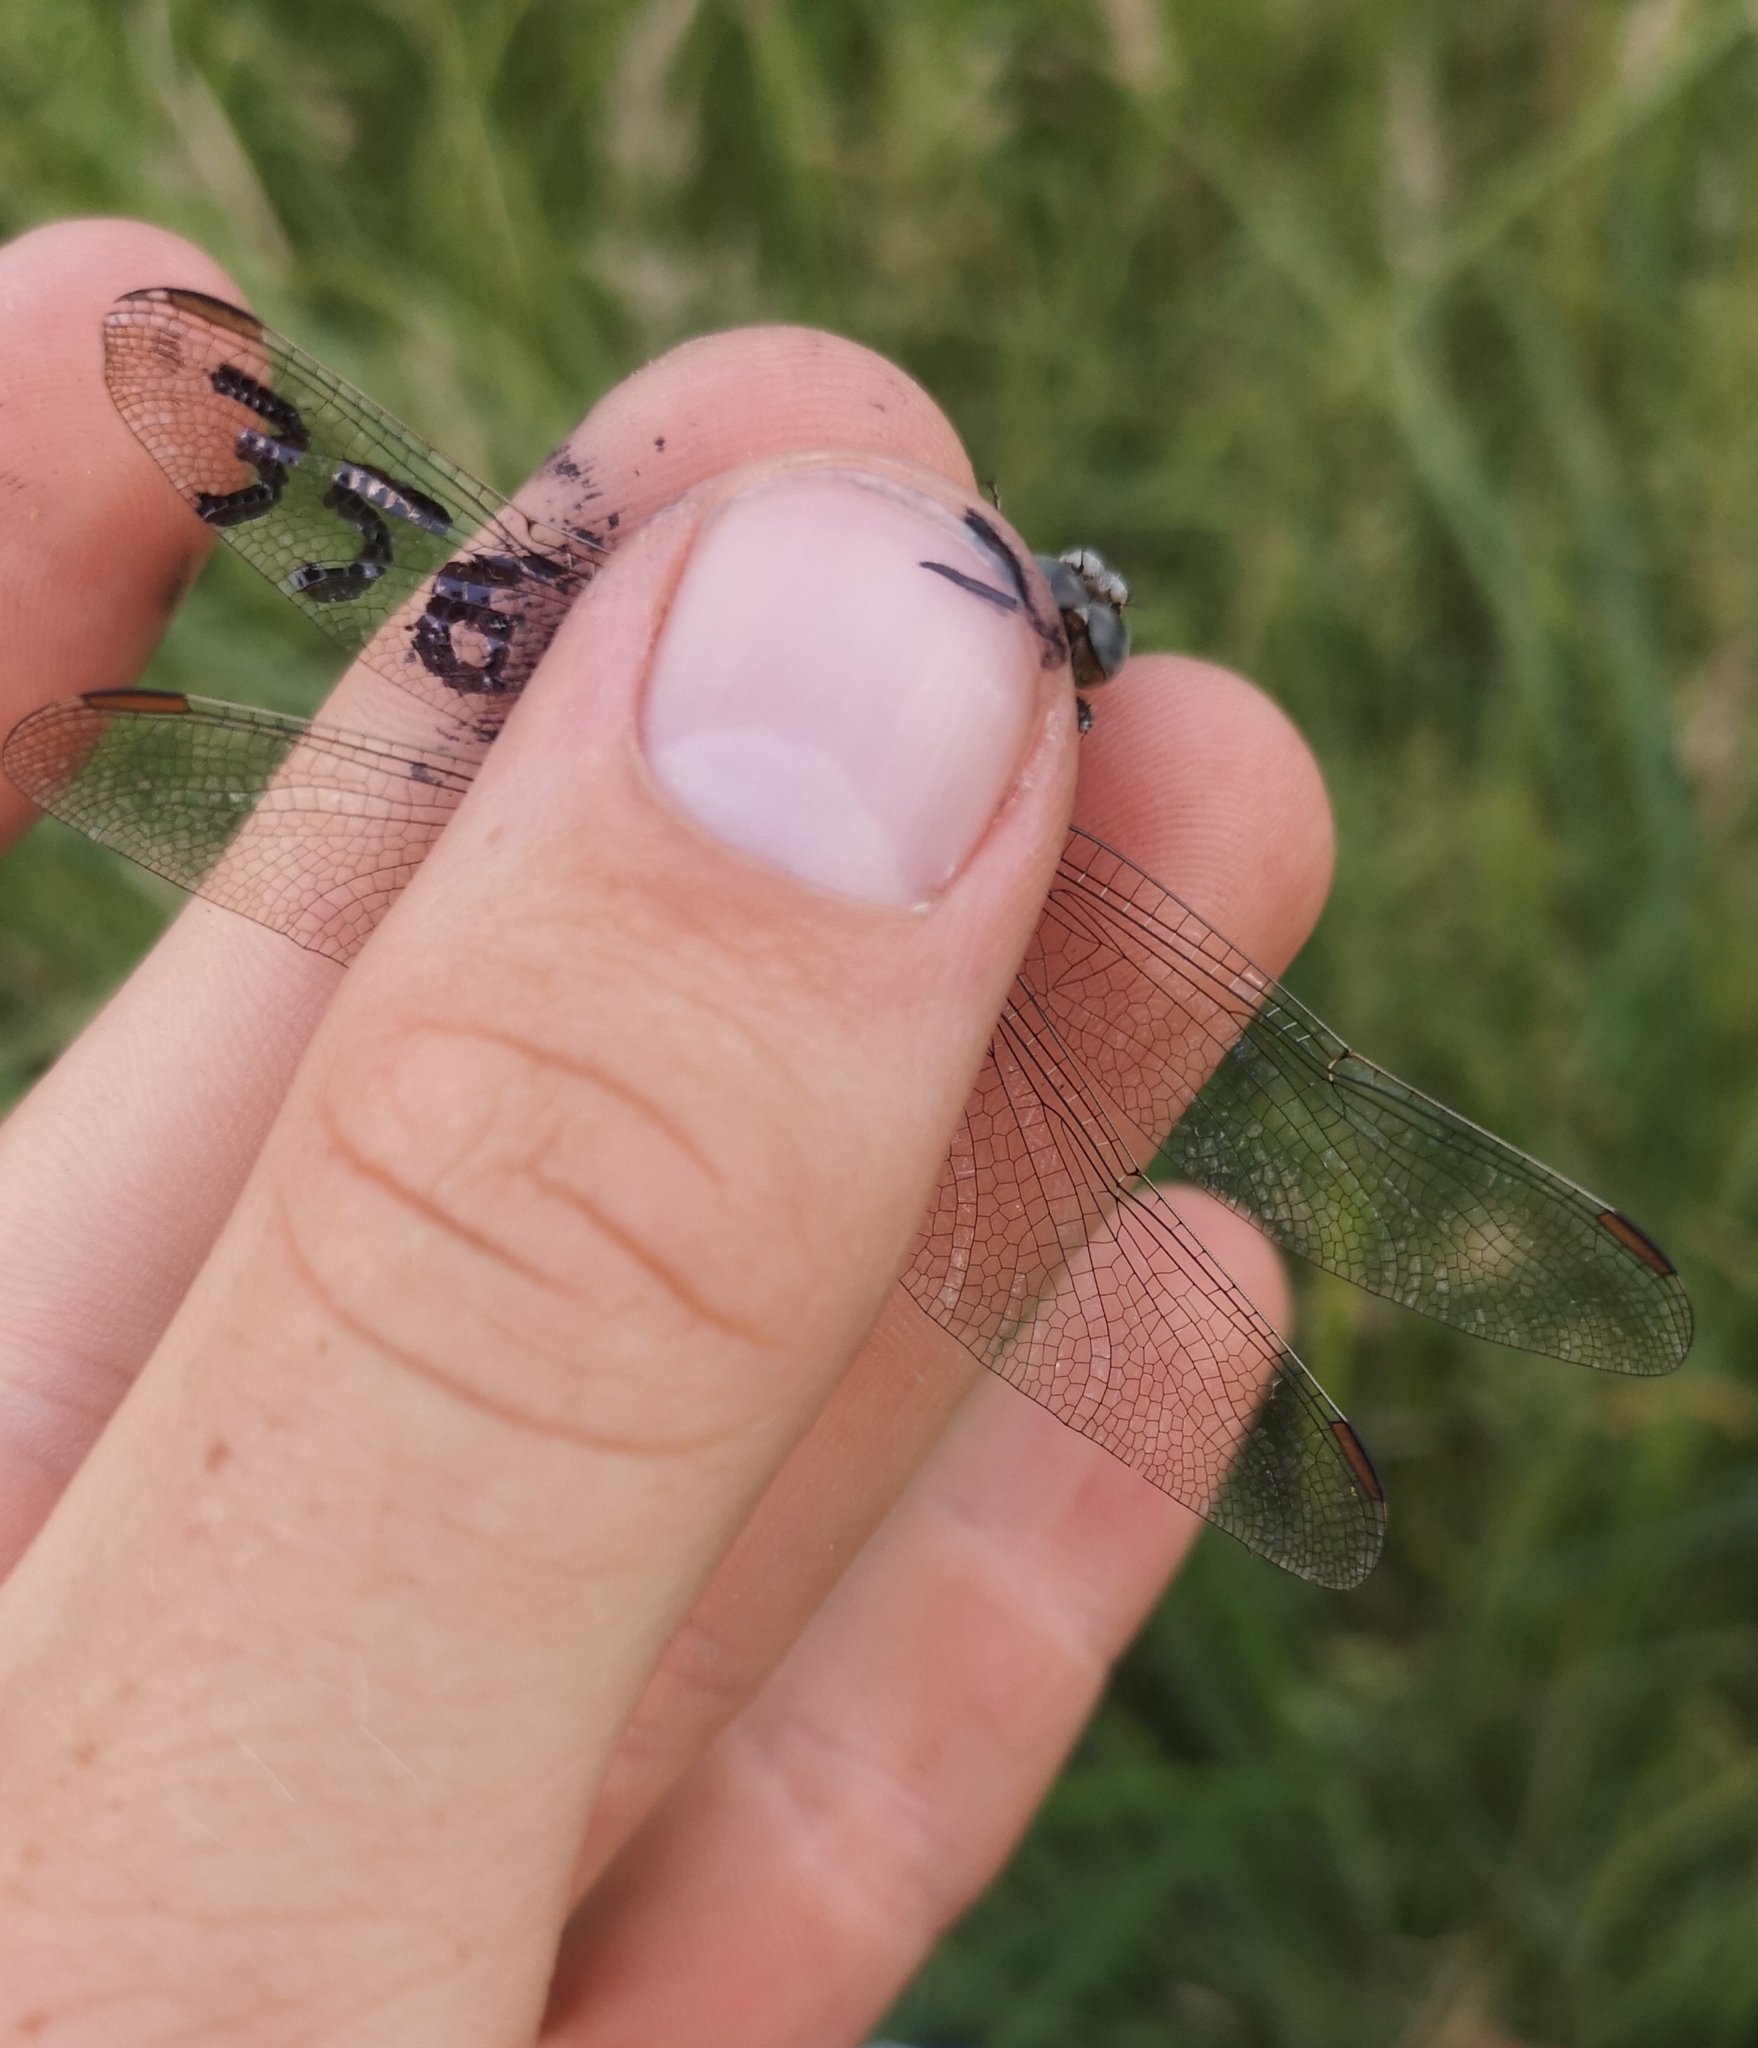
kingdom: Animalia
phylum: Arthropoda
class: Insecta
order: Odonata
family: Libellulidae
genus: Orthetrum
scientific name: Orthetrum brunneum
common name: Southern skimmer
